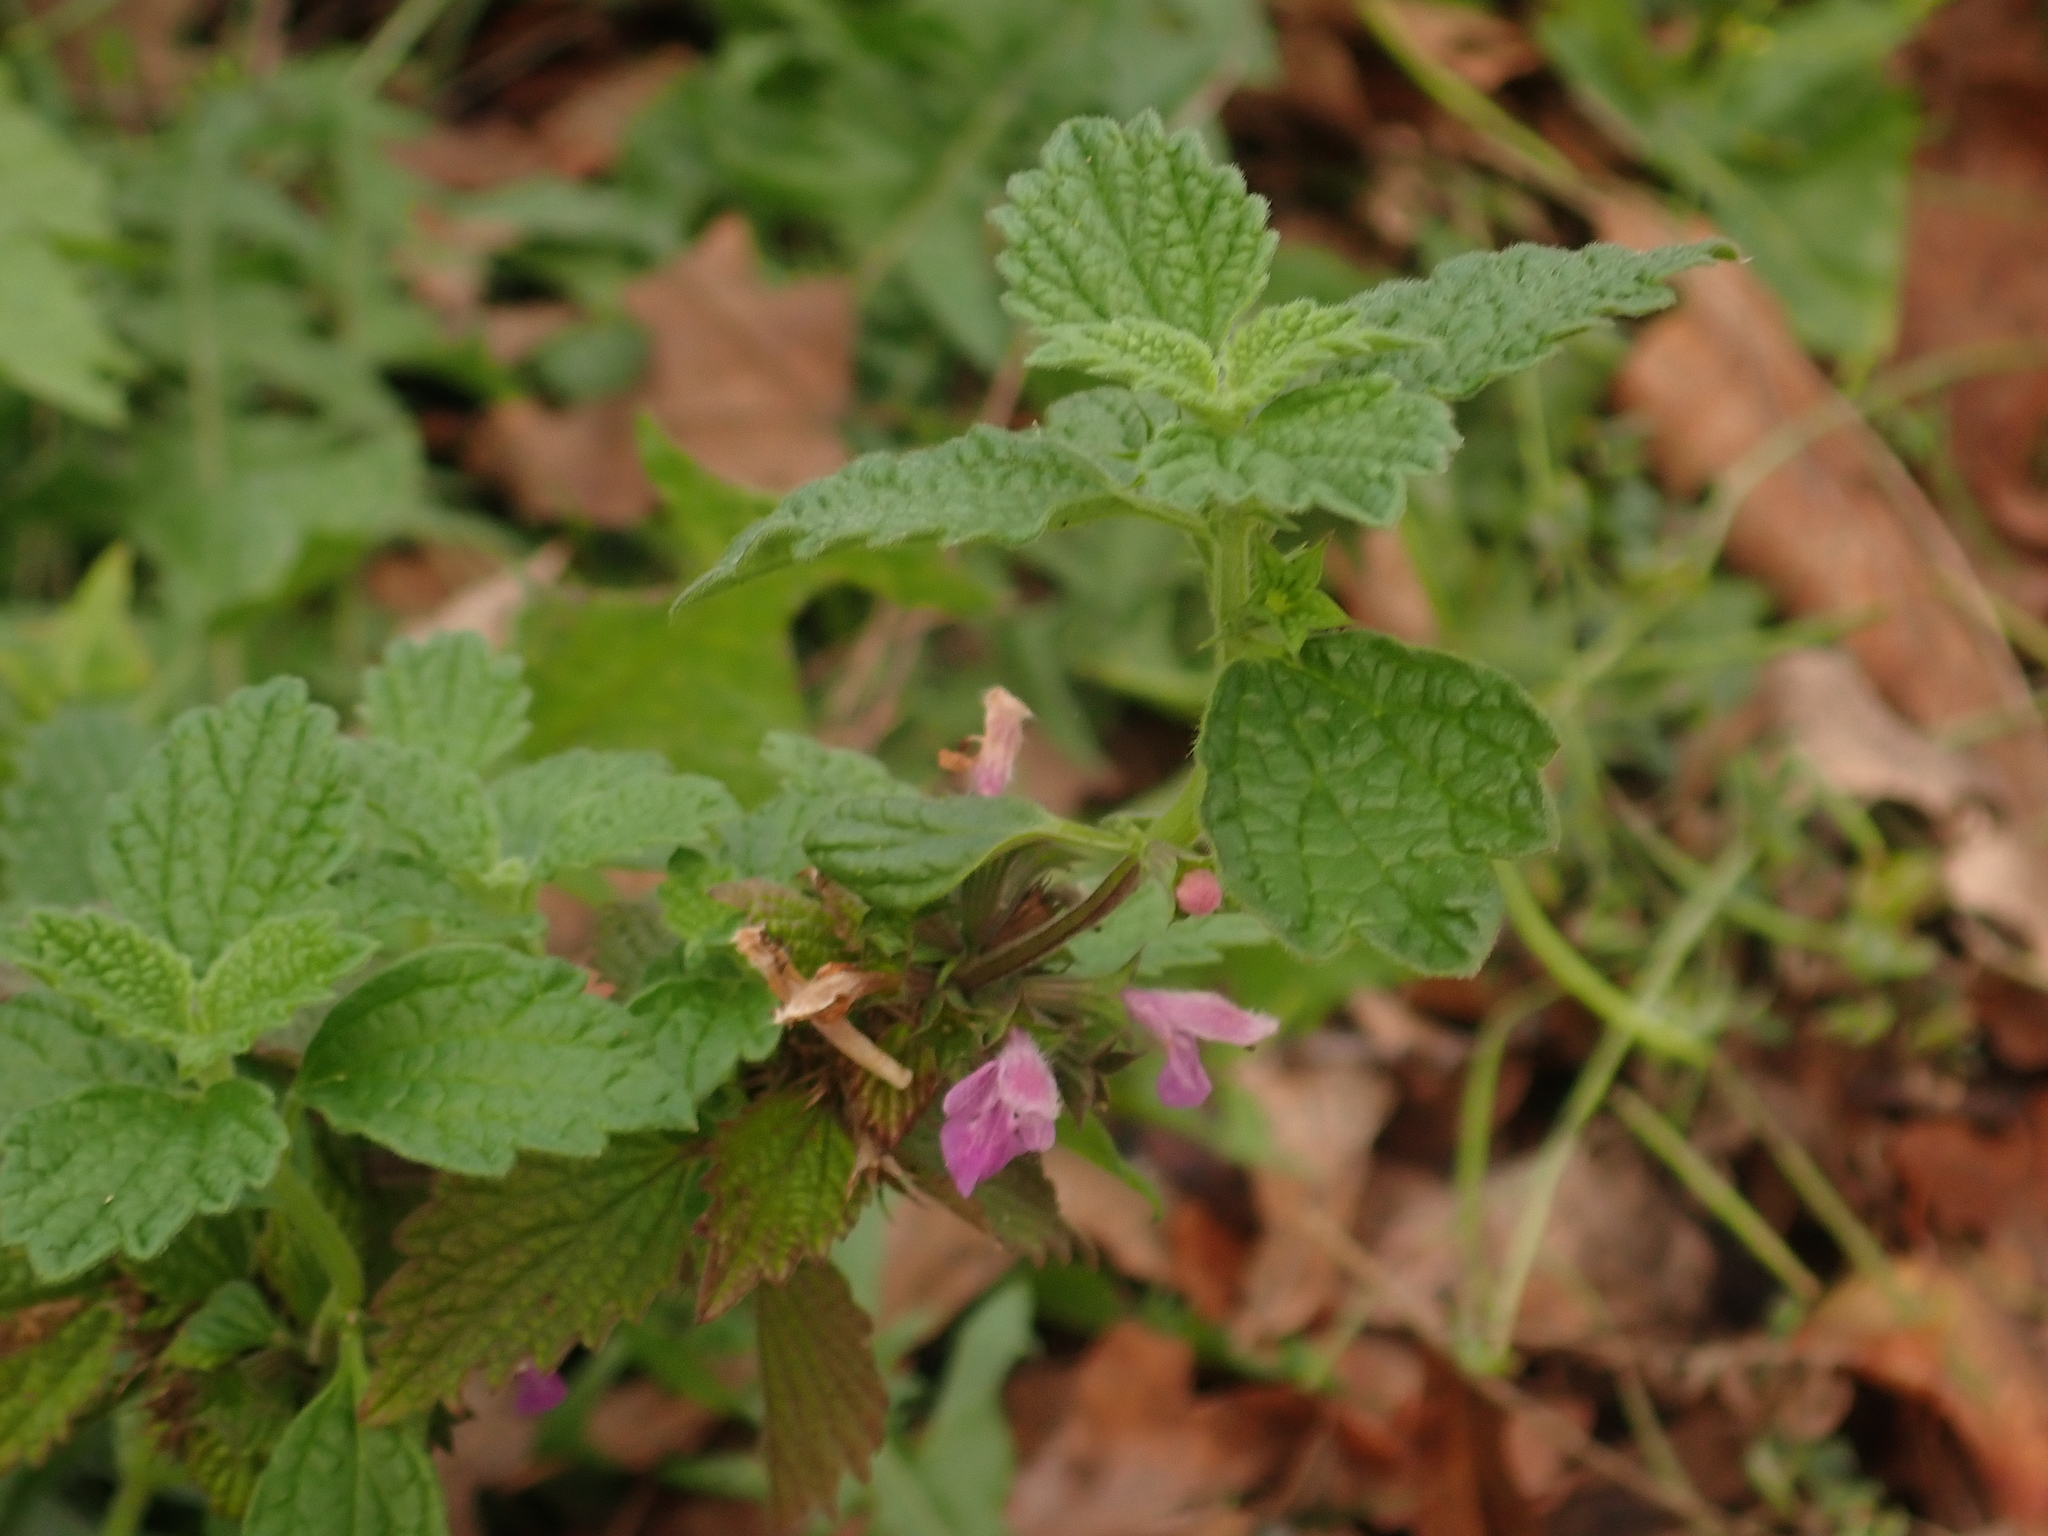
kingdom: Plantae
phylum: Tracheophyta
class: Magnoliopsida
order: Lamiales
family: Lamiaceae
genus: Ballota
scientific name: Ballota nigra
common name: Black horehound
